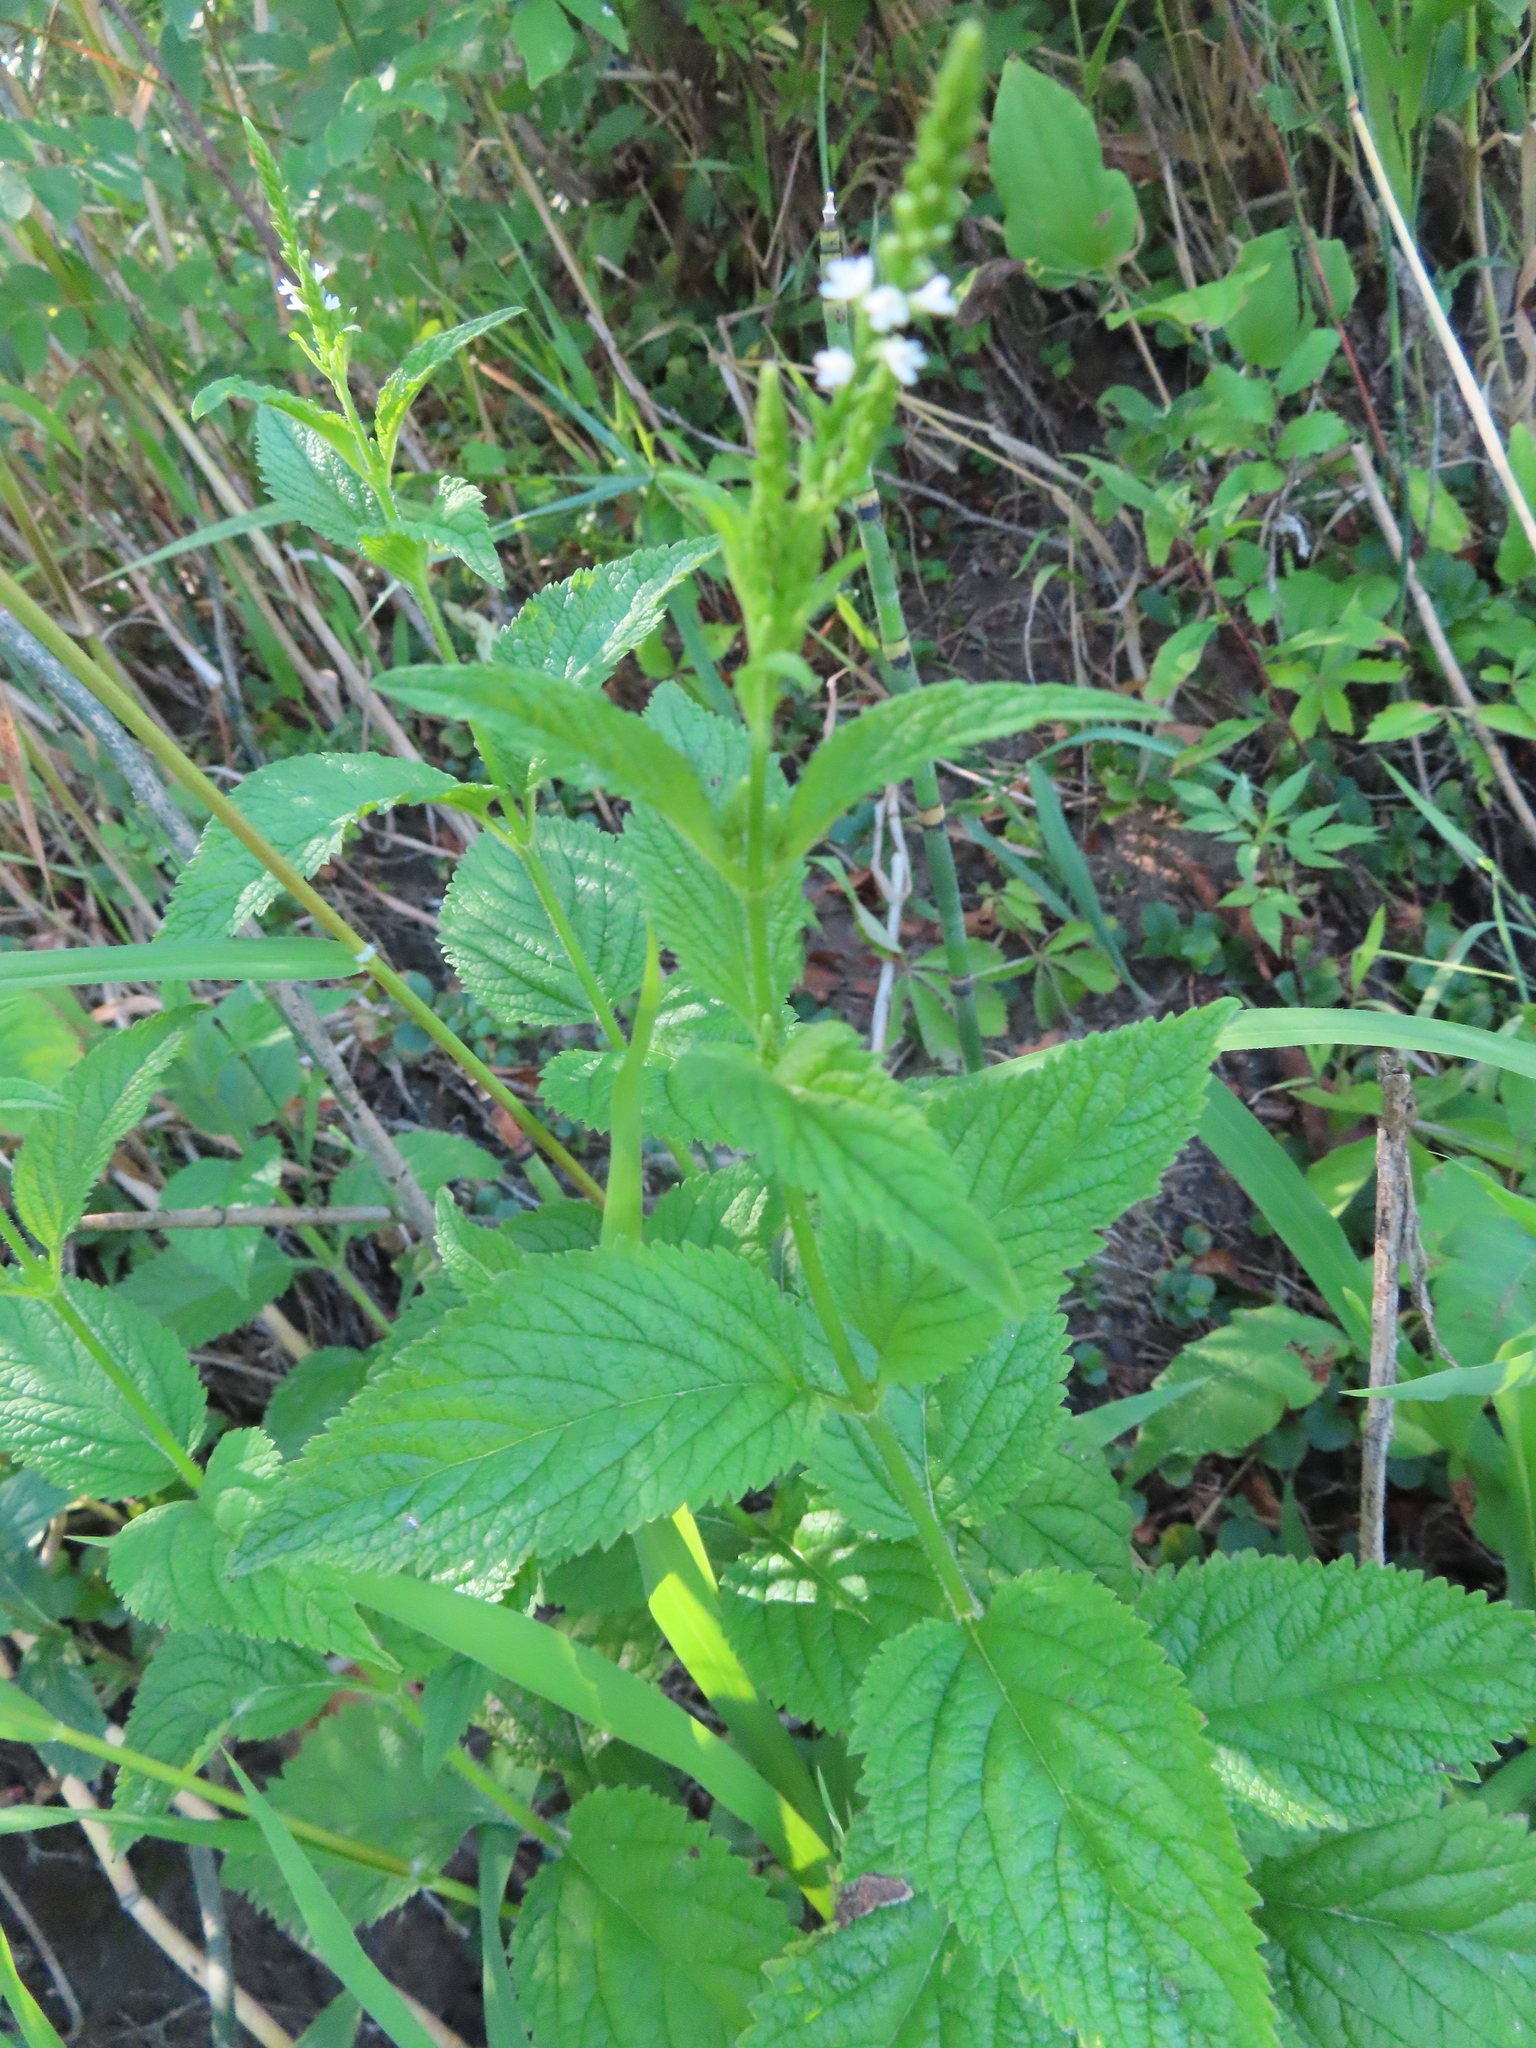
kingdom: Plantae
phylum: Tracheophyta
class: Magnoliopsida
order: Lamiales
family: Verbenaceae
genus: Verbena
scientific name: Verbena urticifolia
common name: Nettle-leaved vervain
